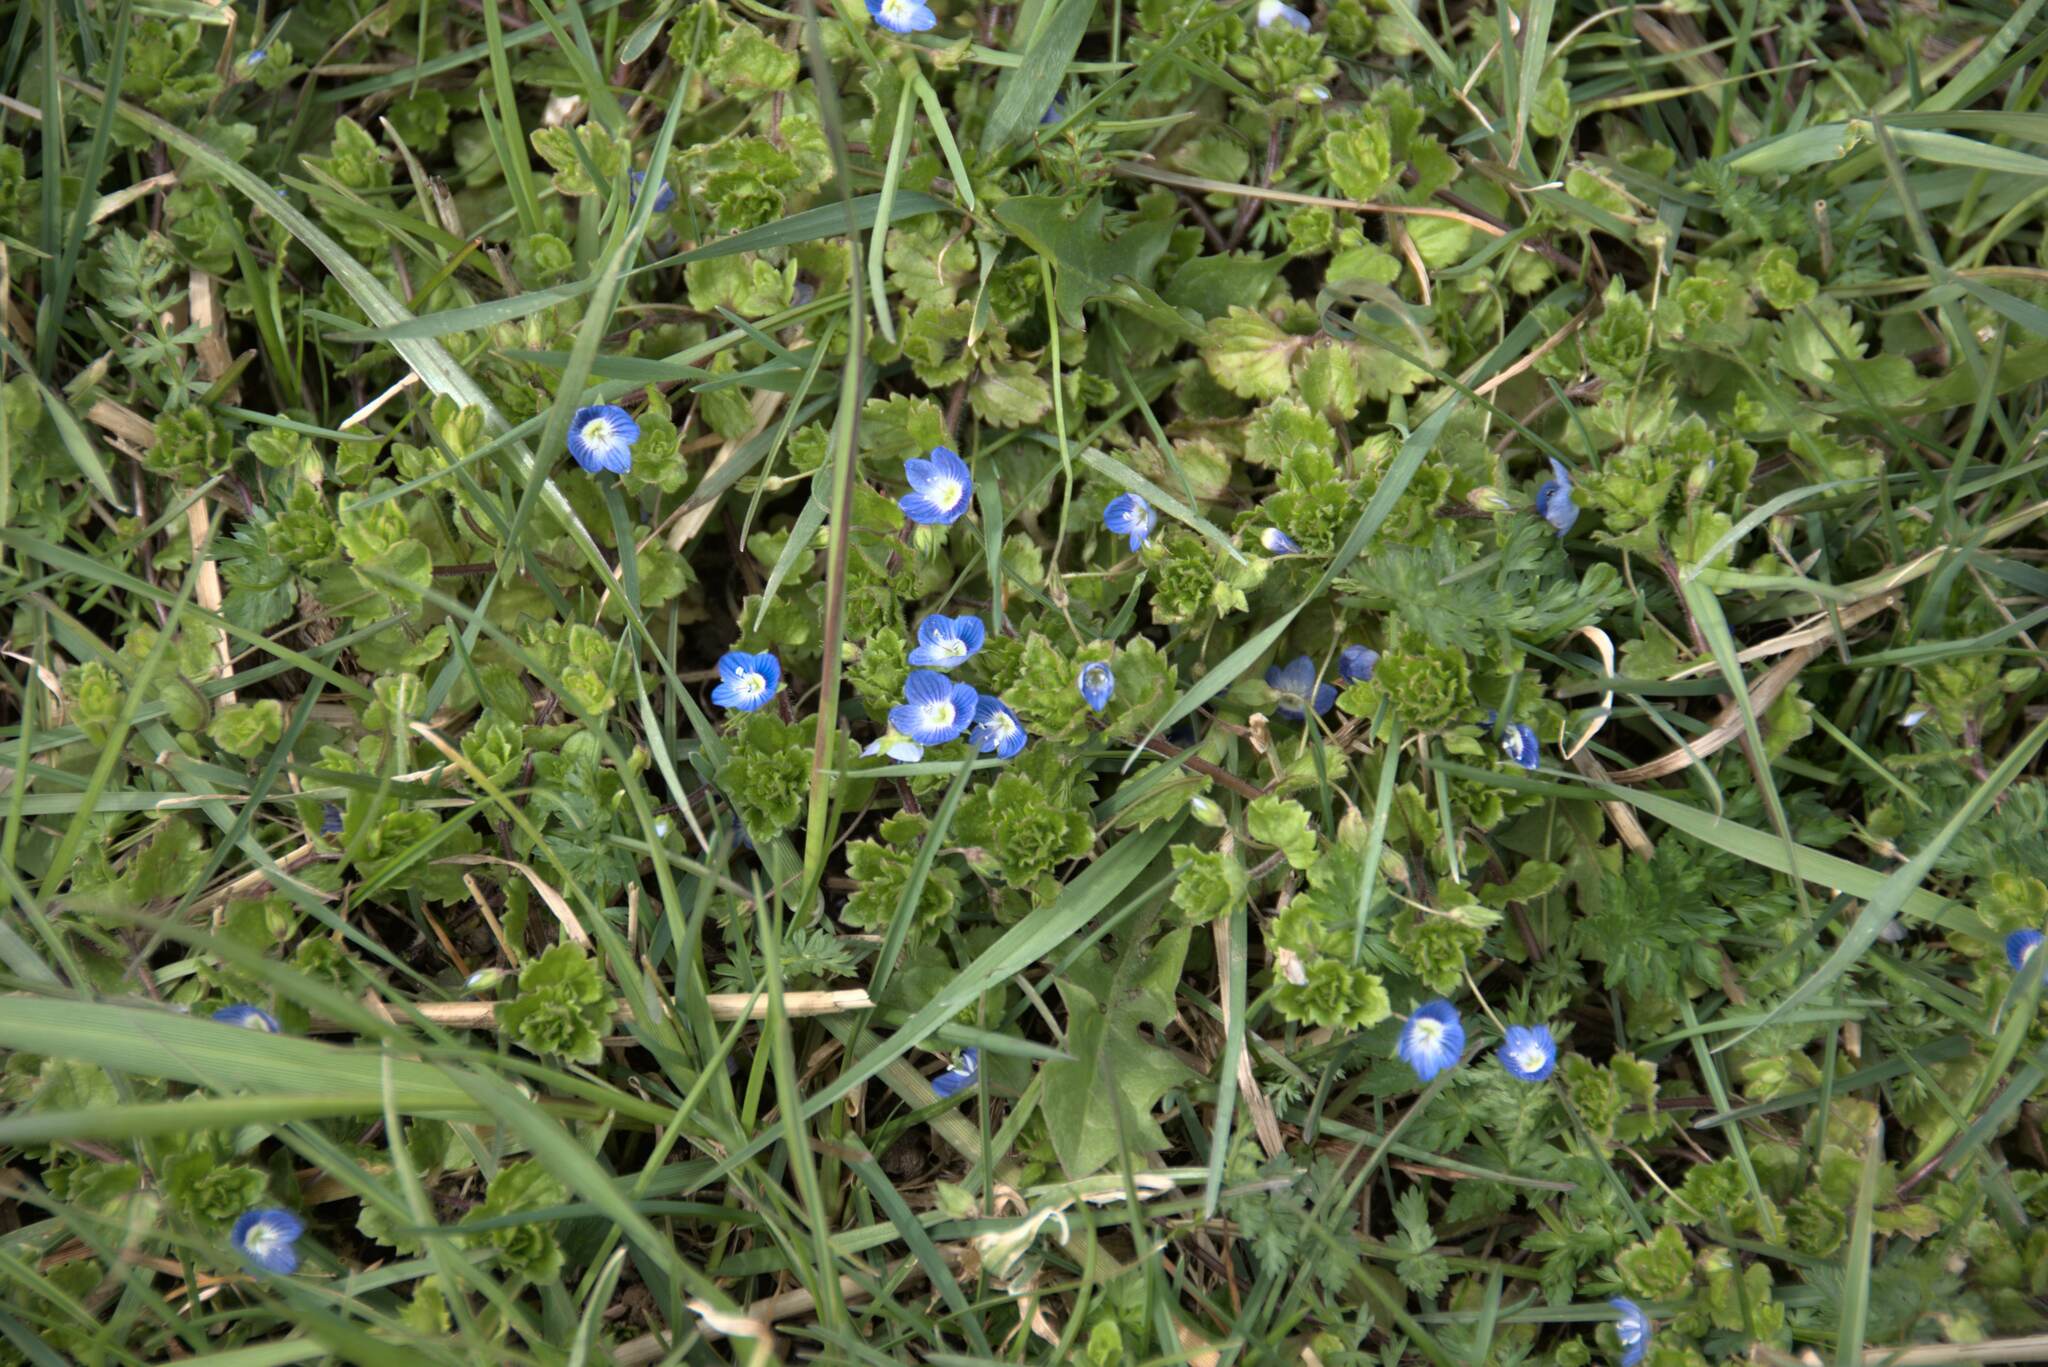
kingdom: Plantae
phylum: Tracheophyta
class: Magnoliopsida
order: Lamiales
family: Plantaginaceae
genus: Veronica
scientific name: Veronica persica
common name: Common field-speedwell
